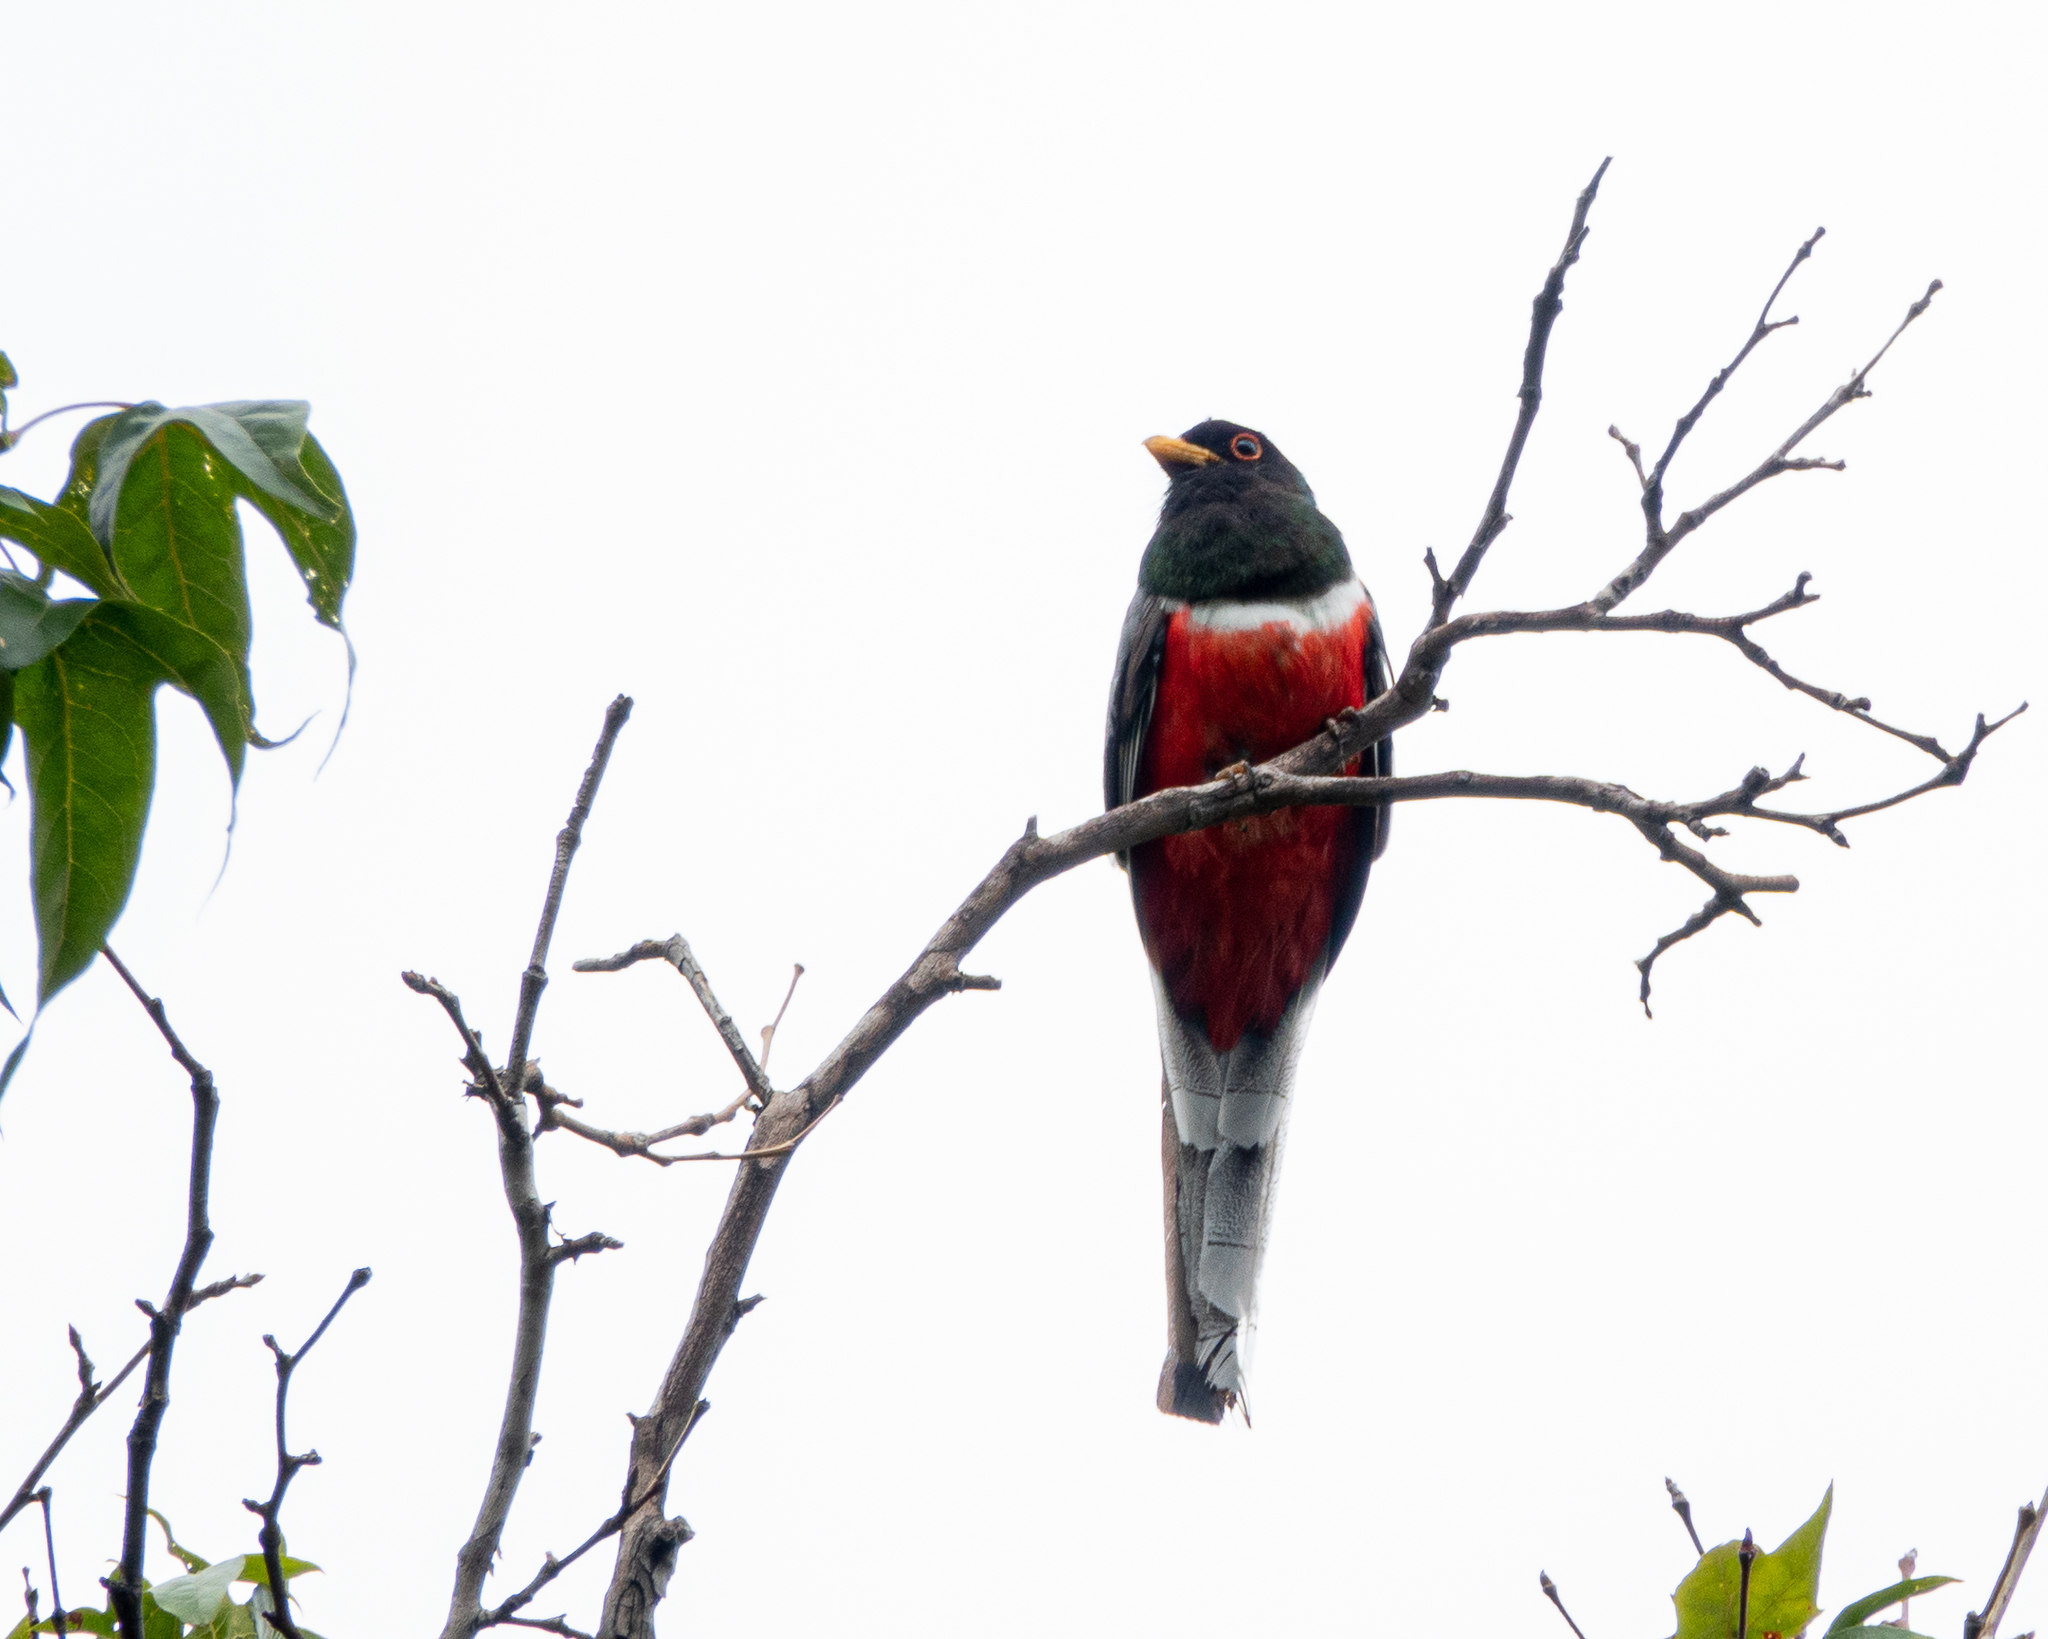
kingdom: Animalia
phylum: Chordata
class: Aves
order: Trogoniformes
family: Trogonidae
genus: Trogon
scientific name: Trogon elegans
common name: Elegant trogon
